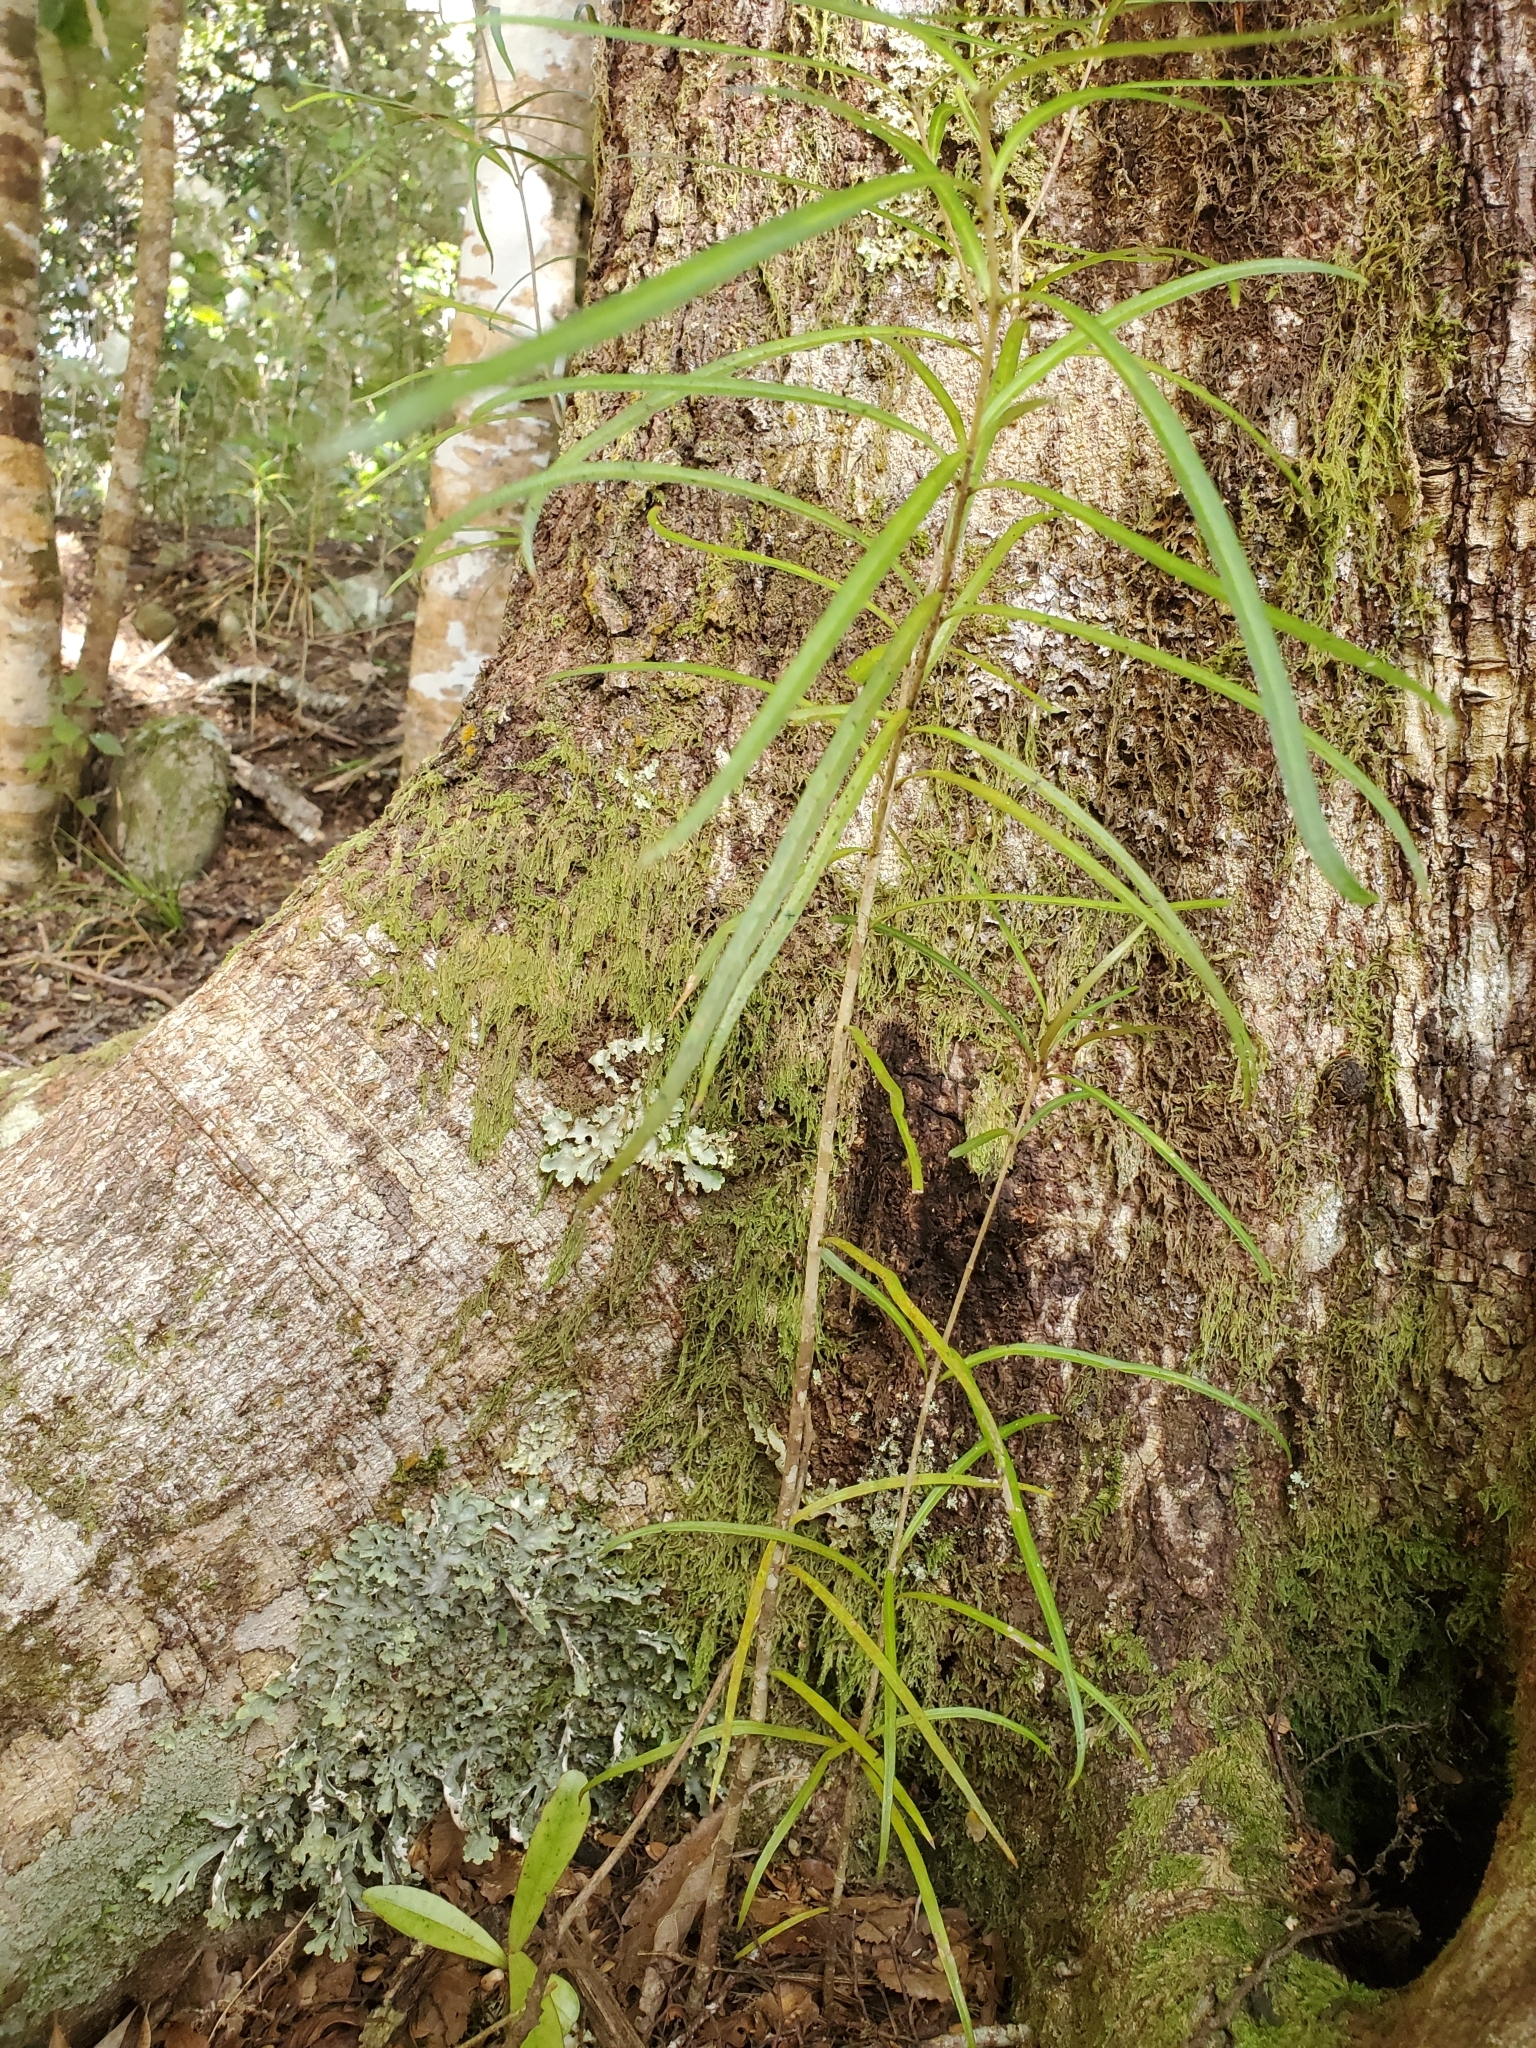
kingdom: Plantae
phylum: Tracheophyta
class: Magnoliopsida
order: Lamiales
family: Oleaceae
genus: Nestegis
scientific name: Nestegis lanceolata
